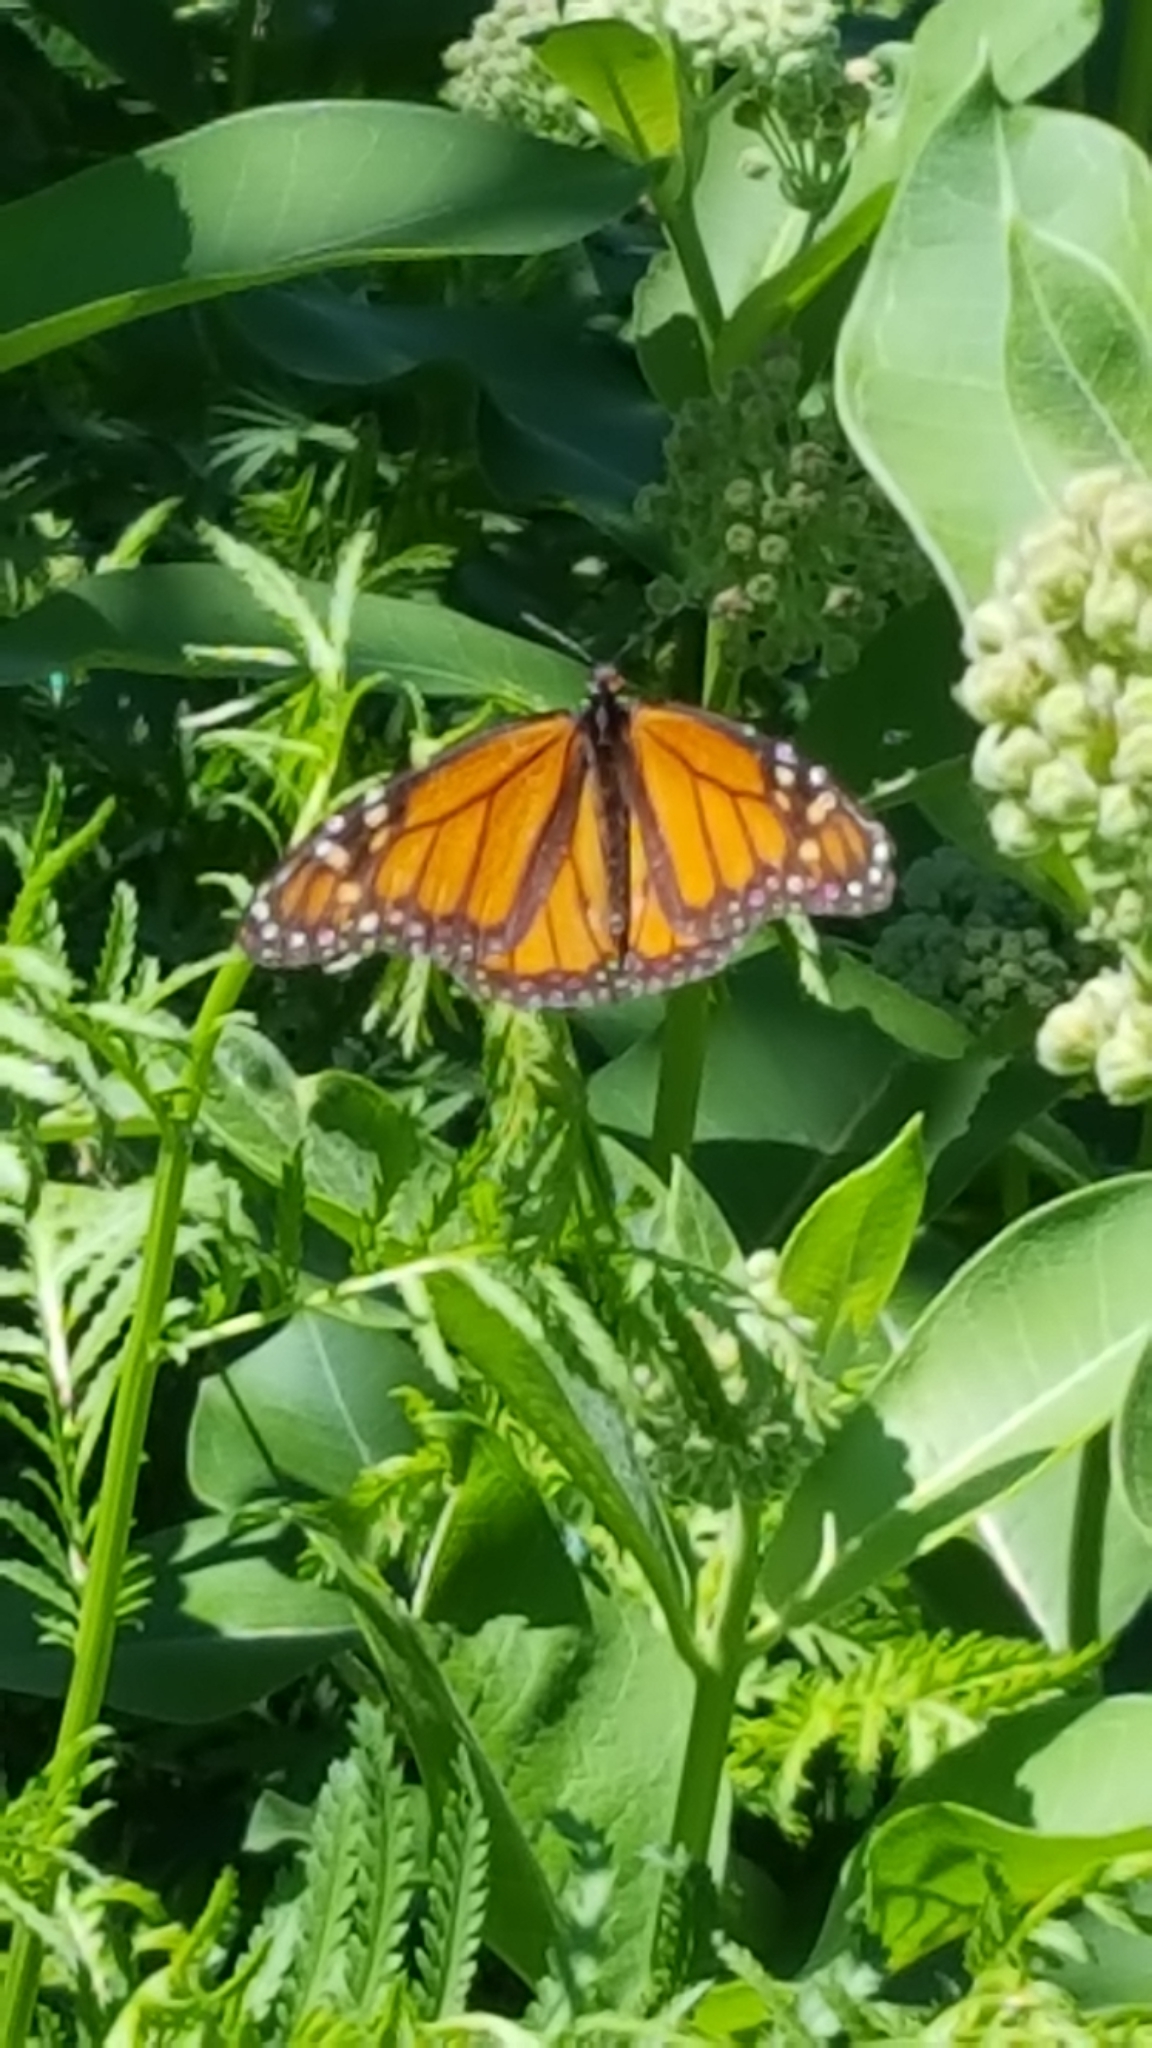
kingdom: Animalia
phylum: Arthropoda
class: Insecta
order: Lepidoptera
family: Nymphalidae
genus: Danaus
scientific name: Danaus plexippus
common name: Monarch
